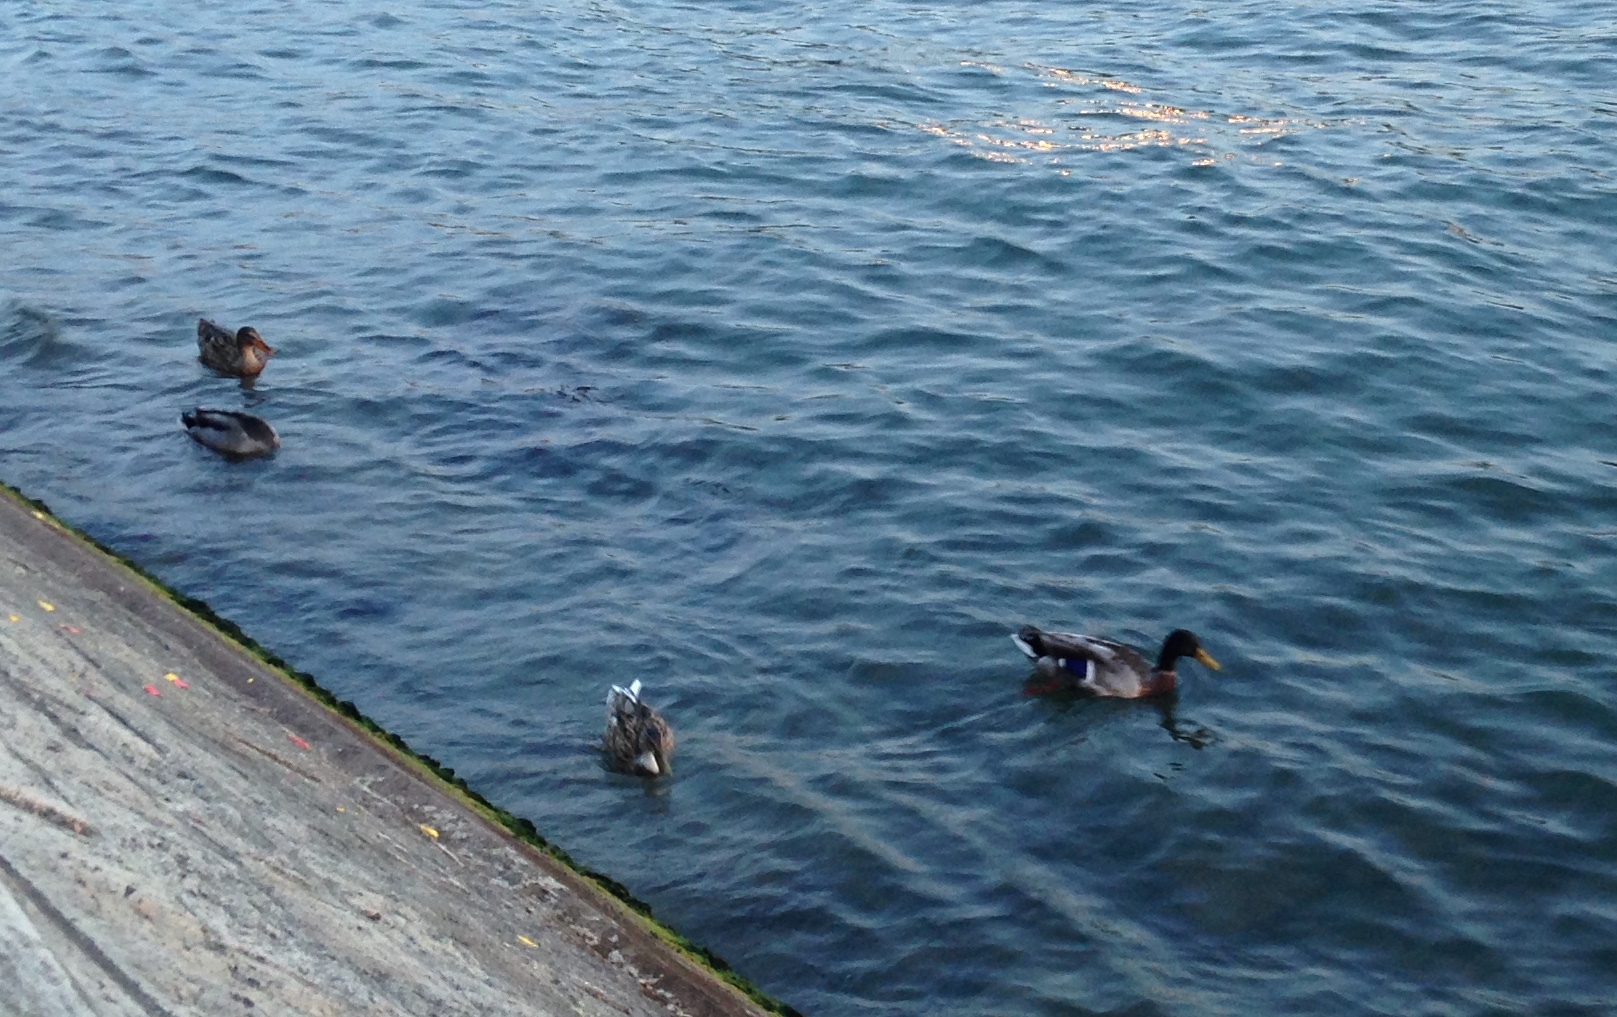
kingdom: Animalia
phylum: Chordata
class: Aves
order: Anseriformes
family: Anatidae
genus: Anas
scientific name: Anas platyrhynchos
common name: Mallard
